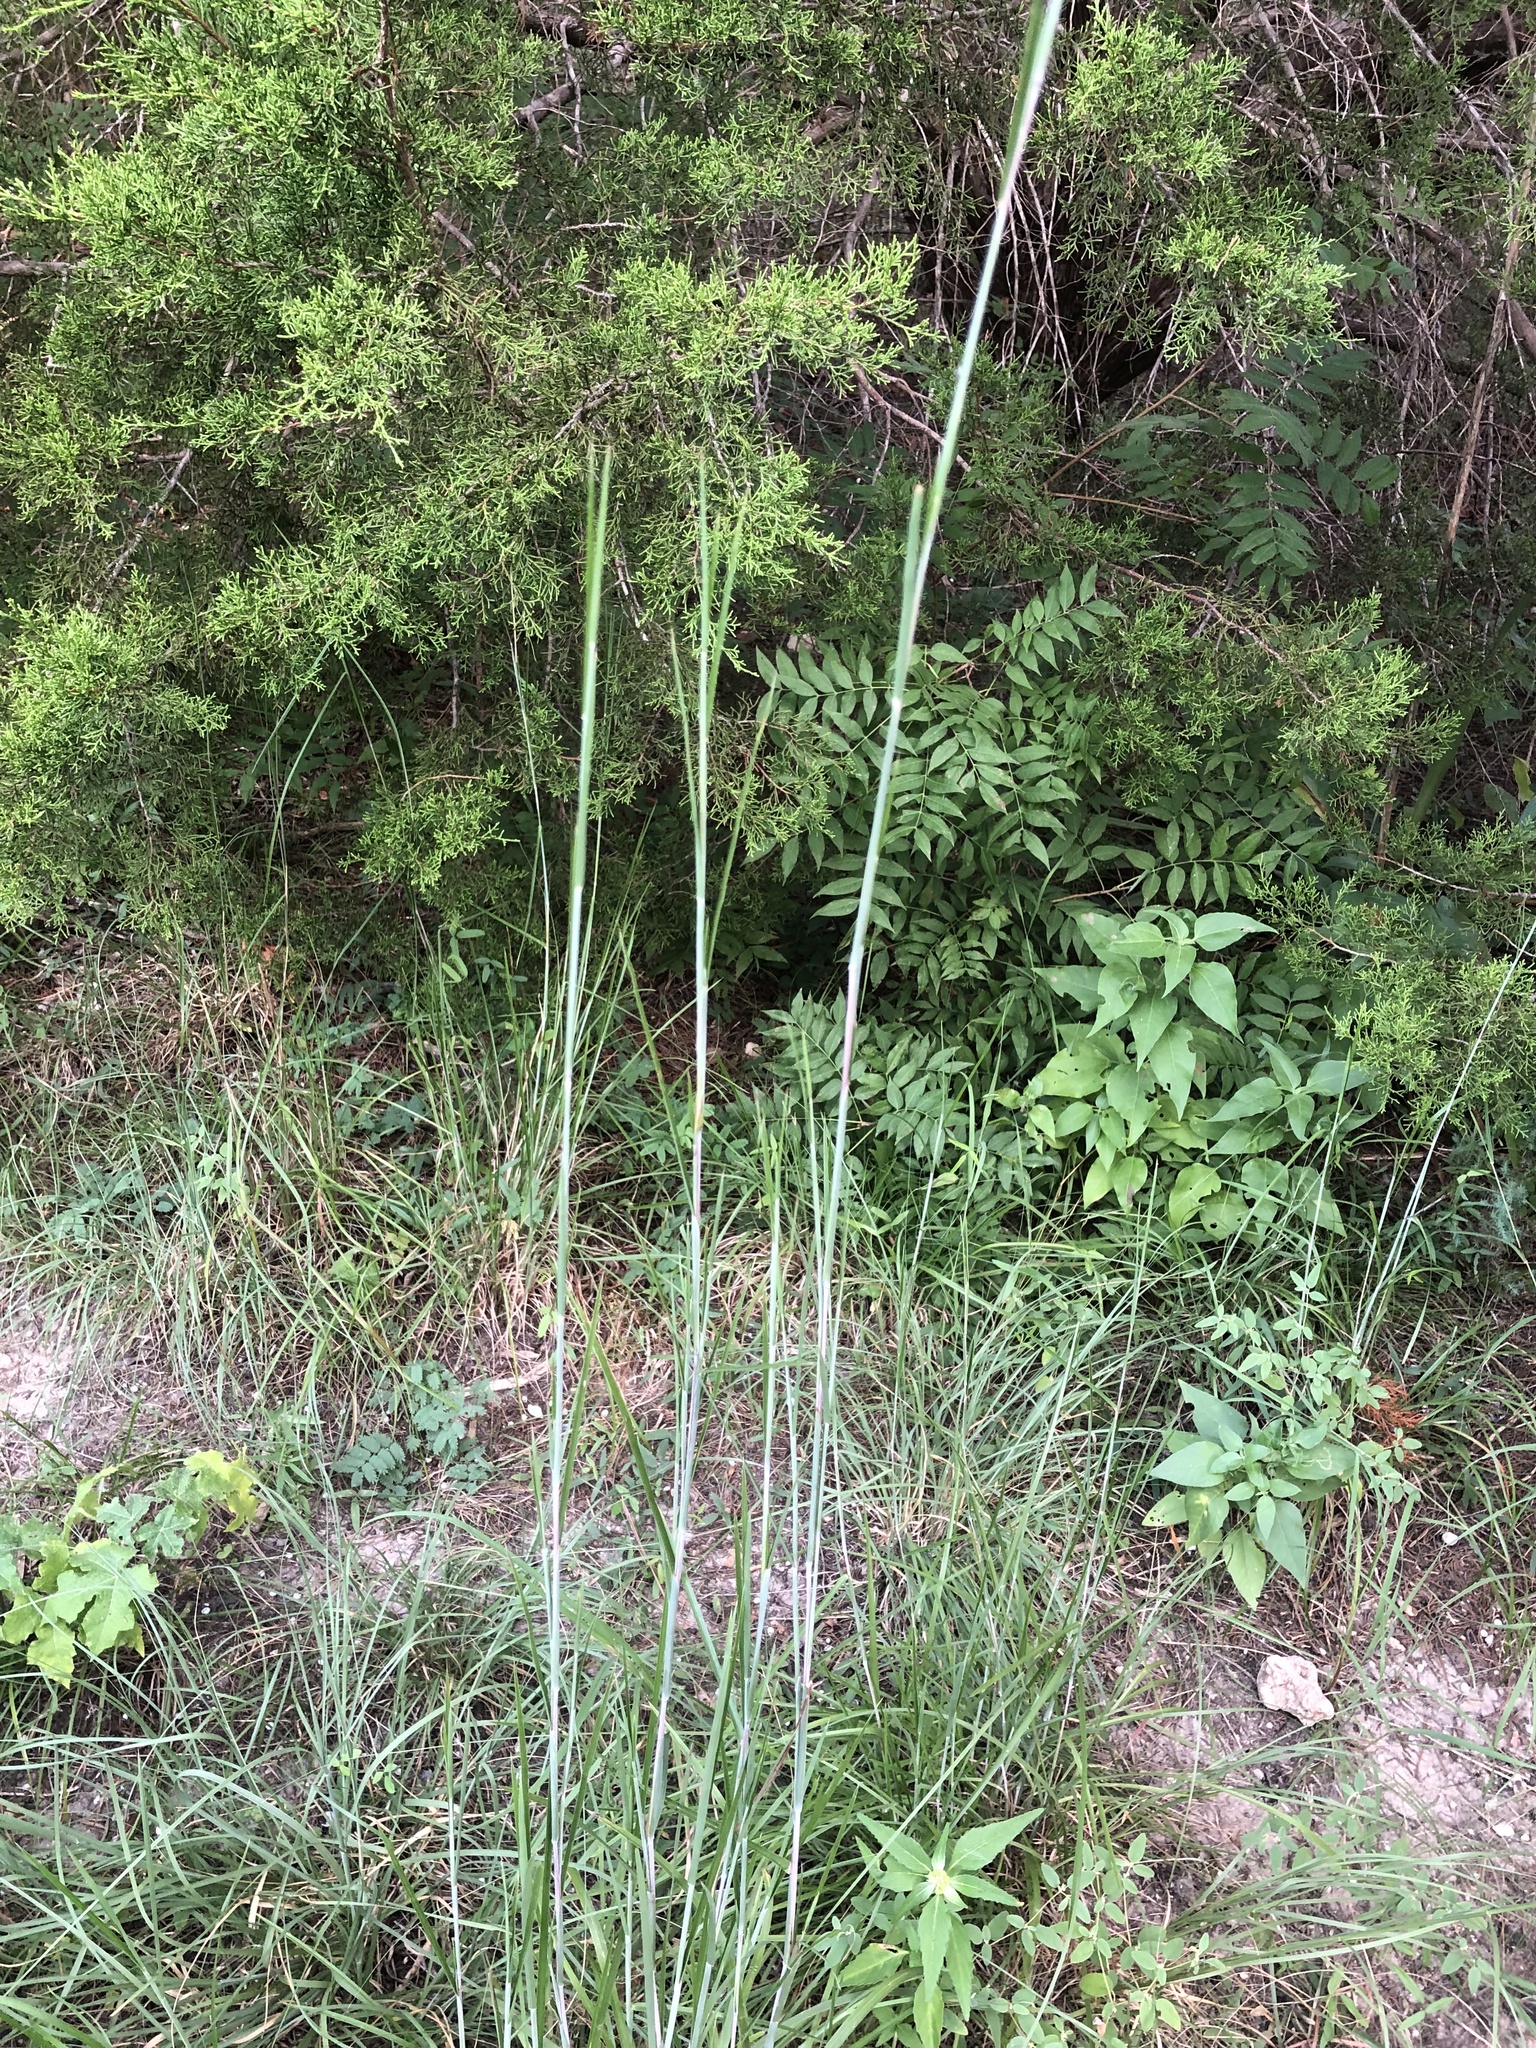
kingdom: Plantae
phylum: Tracheophyta
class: Liliopsida
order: Poales
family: Poaceae
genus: Schizachyrium
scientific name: Schizachyrium scoparium
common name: Little bluestem
